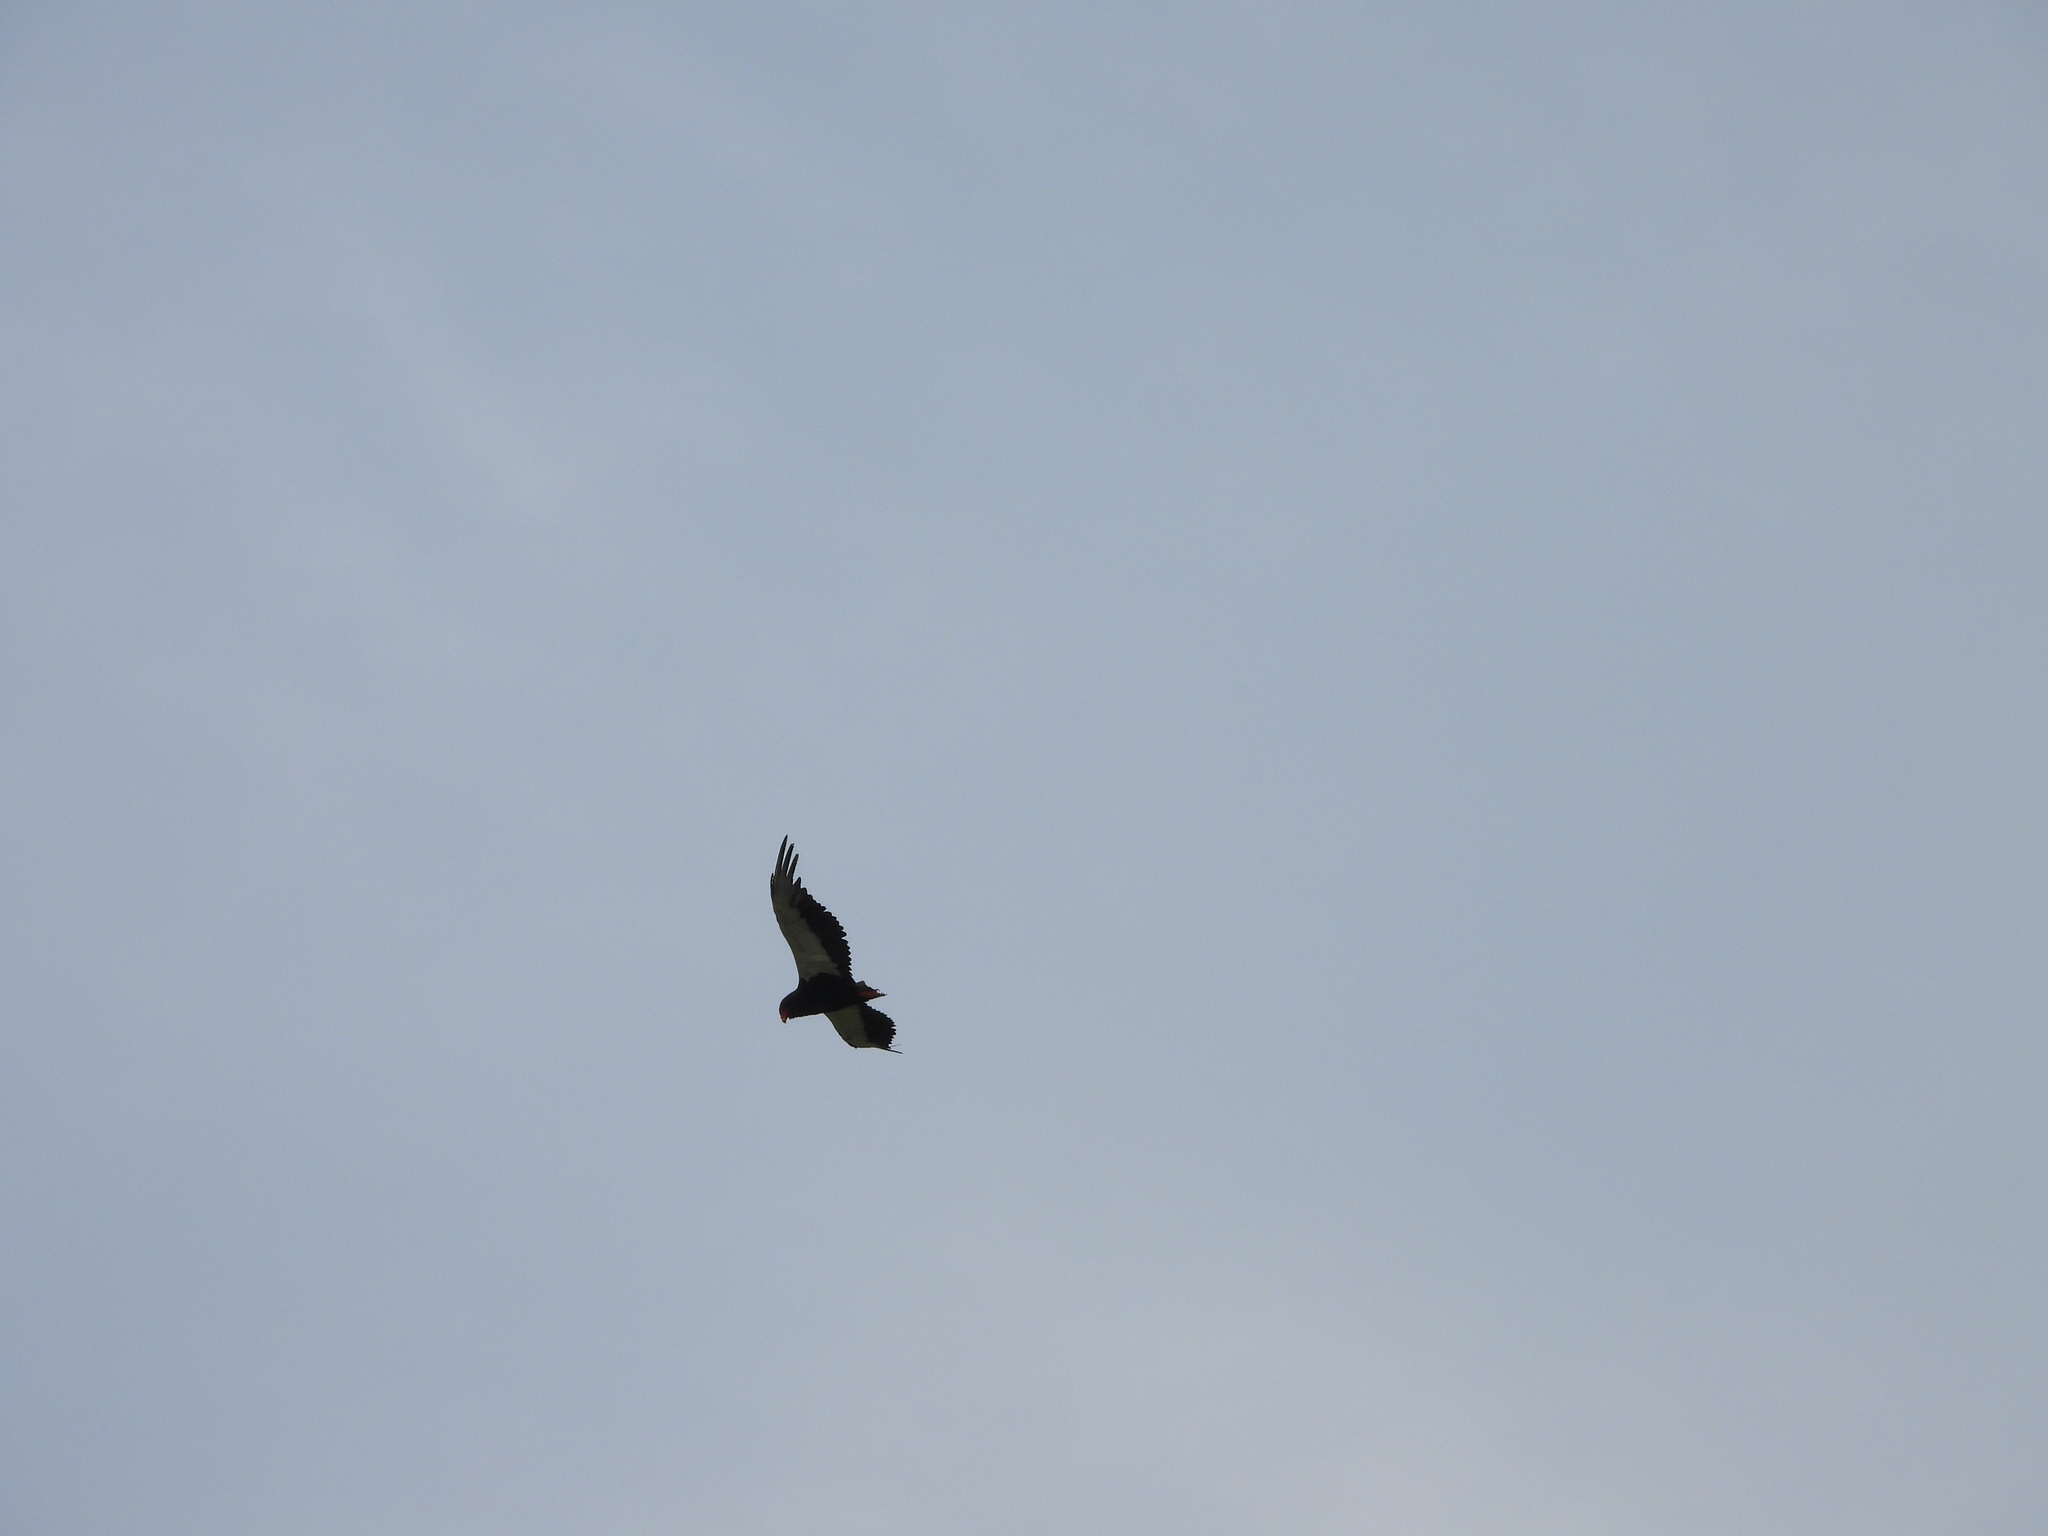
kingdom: Animalia
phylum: Chordata
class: Aves
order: Accipitriformes
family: Accipitridae
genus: Terathopius
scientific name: Terathopius ecaudatus
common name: Bateleur
